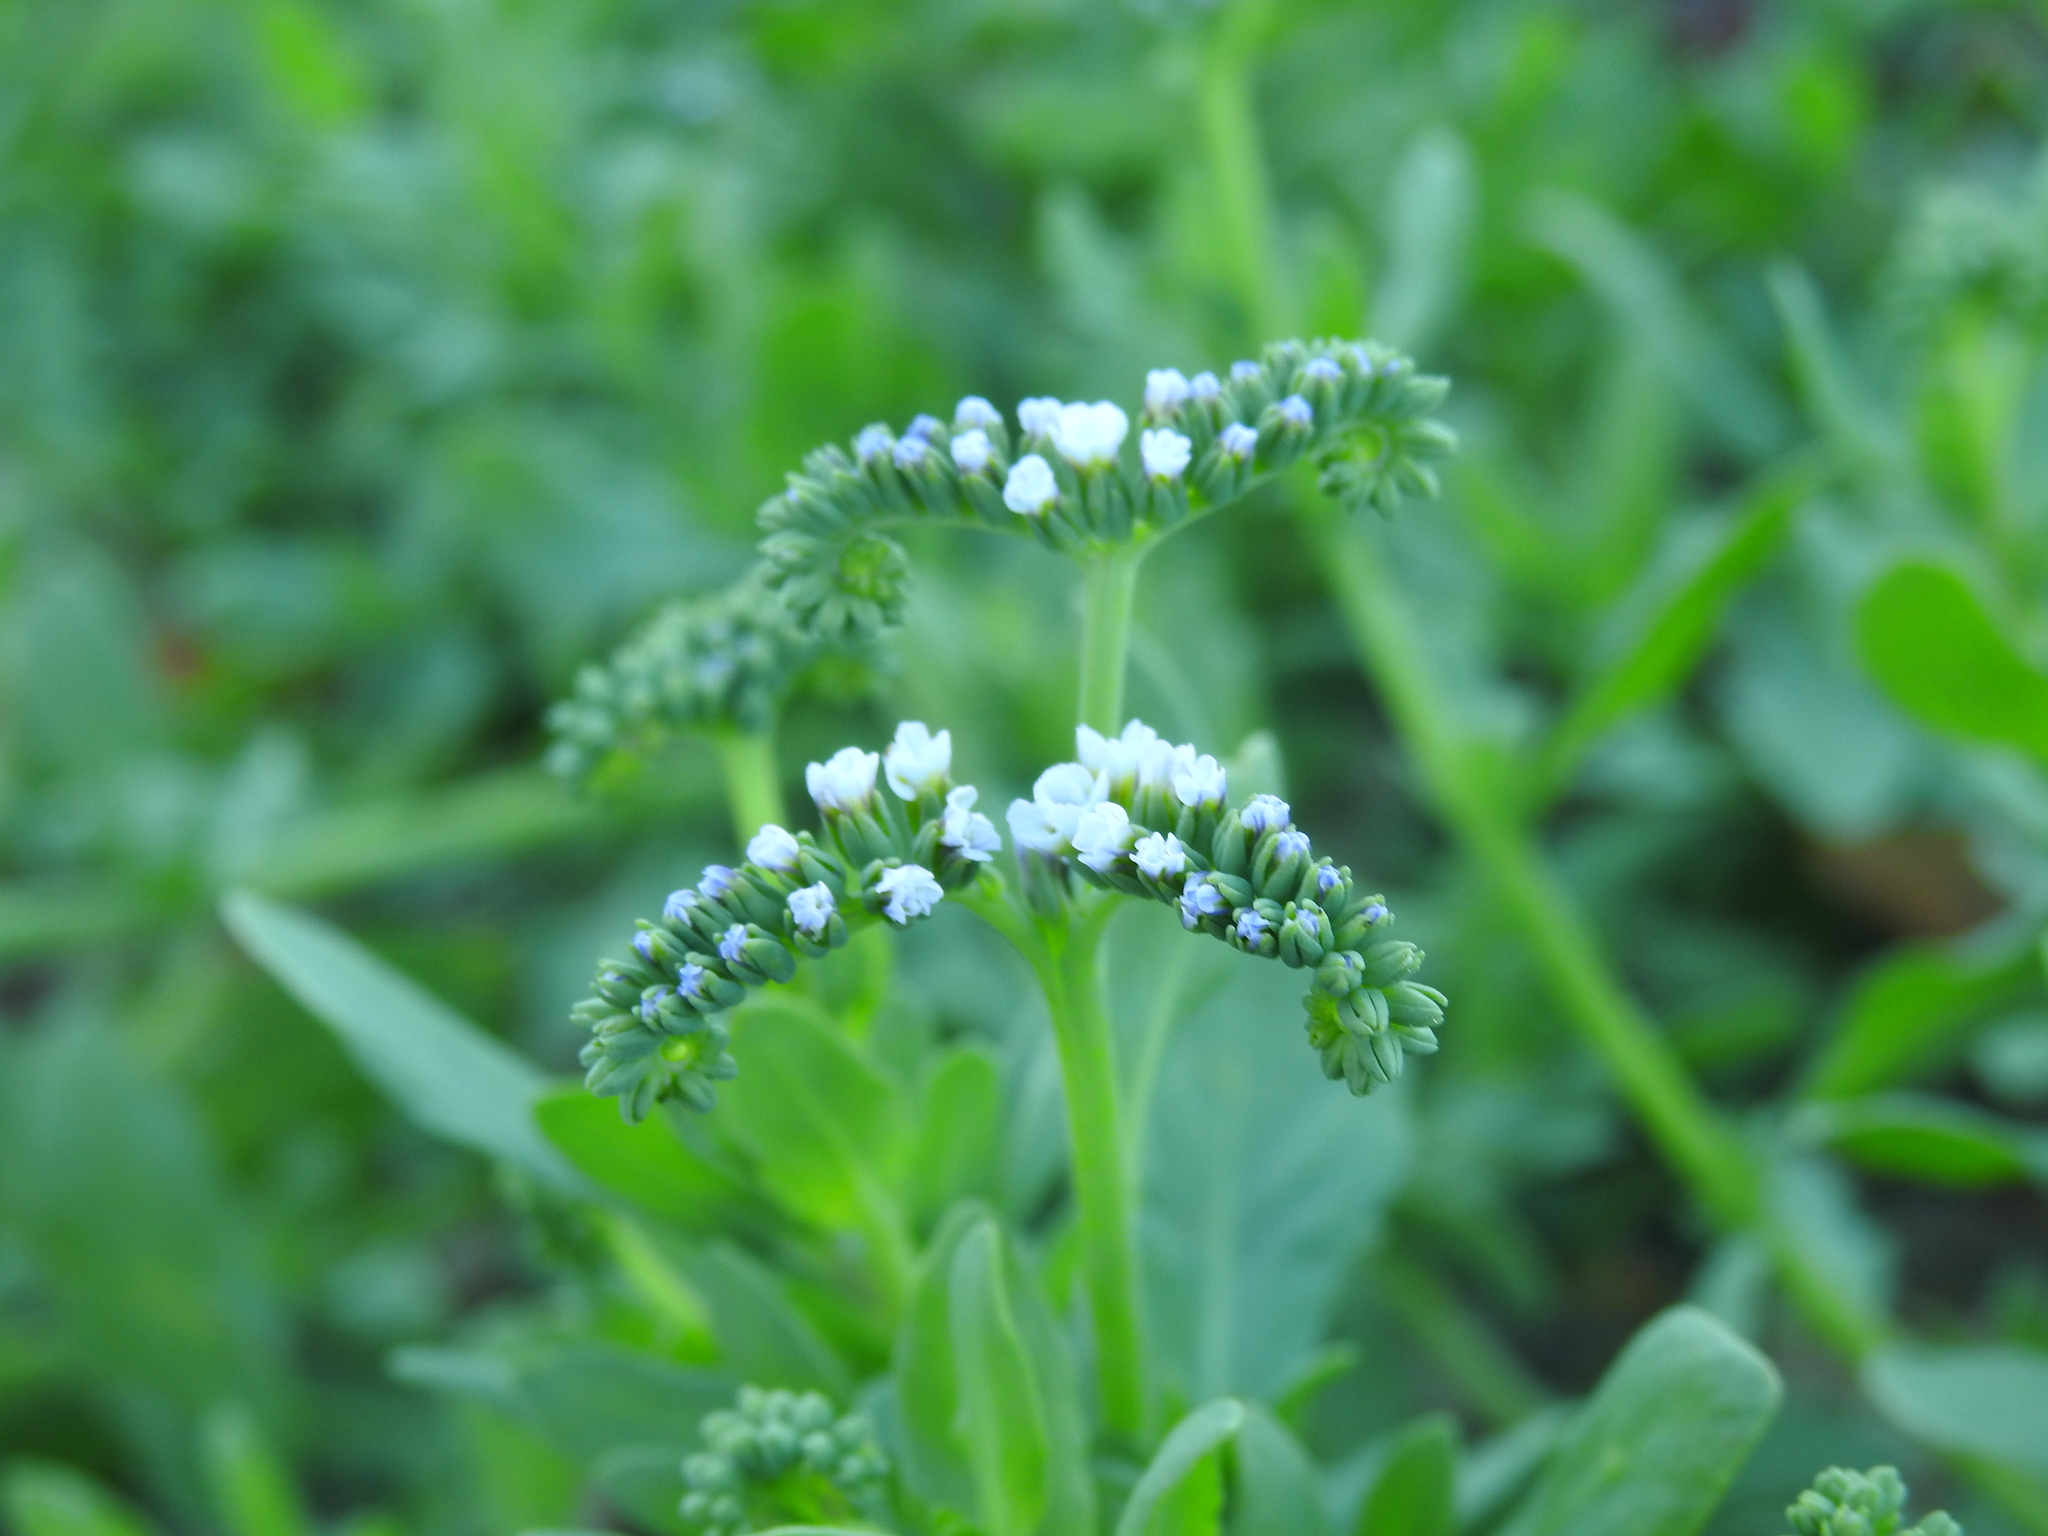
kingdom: Plantae
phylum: Tracheophyta
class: Magnoliopsida
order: Boraginales
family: Heliotropiaceae
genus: Heliotropium
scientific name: Heliotropium curassavicum
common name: Seaside heliotrope
